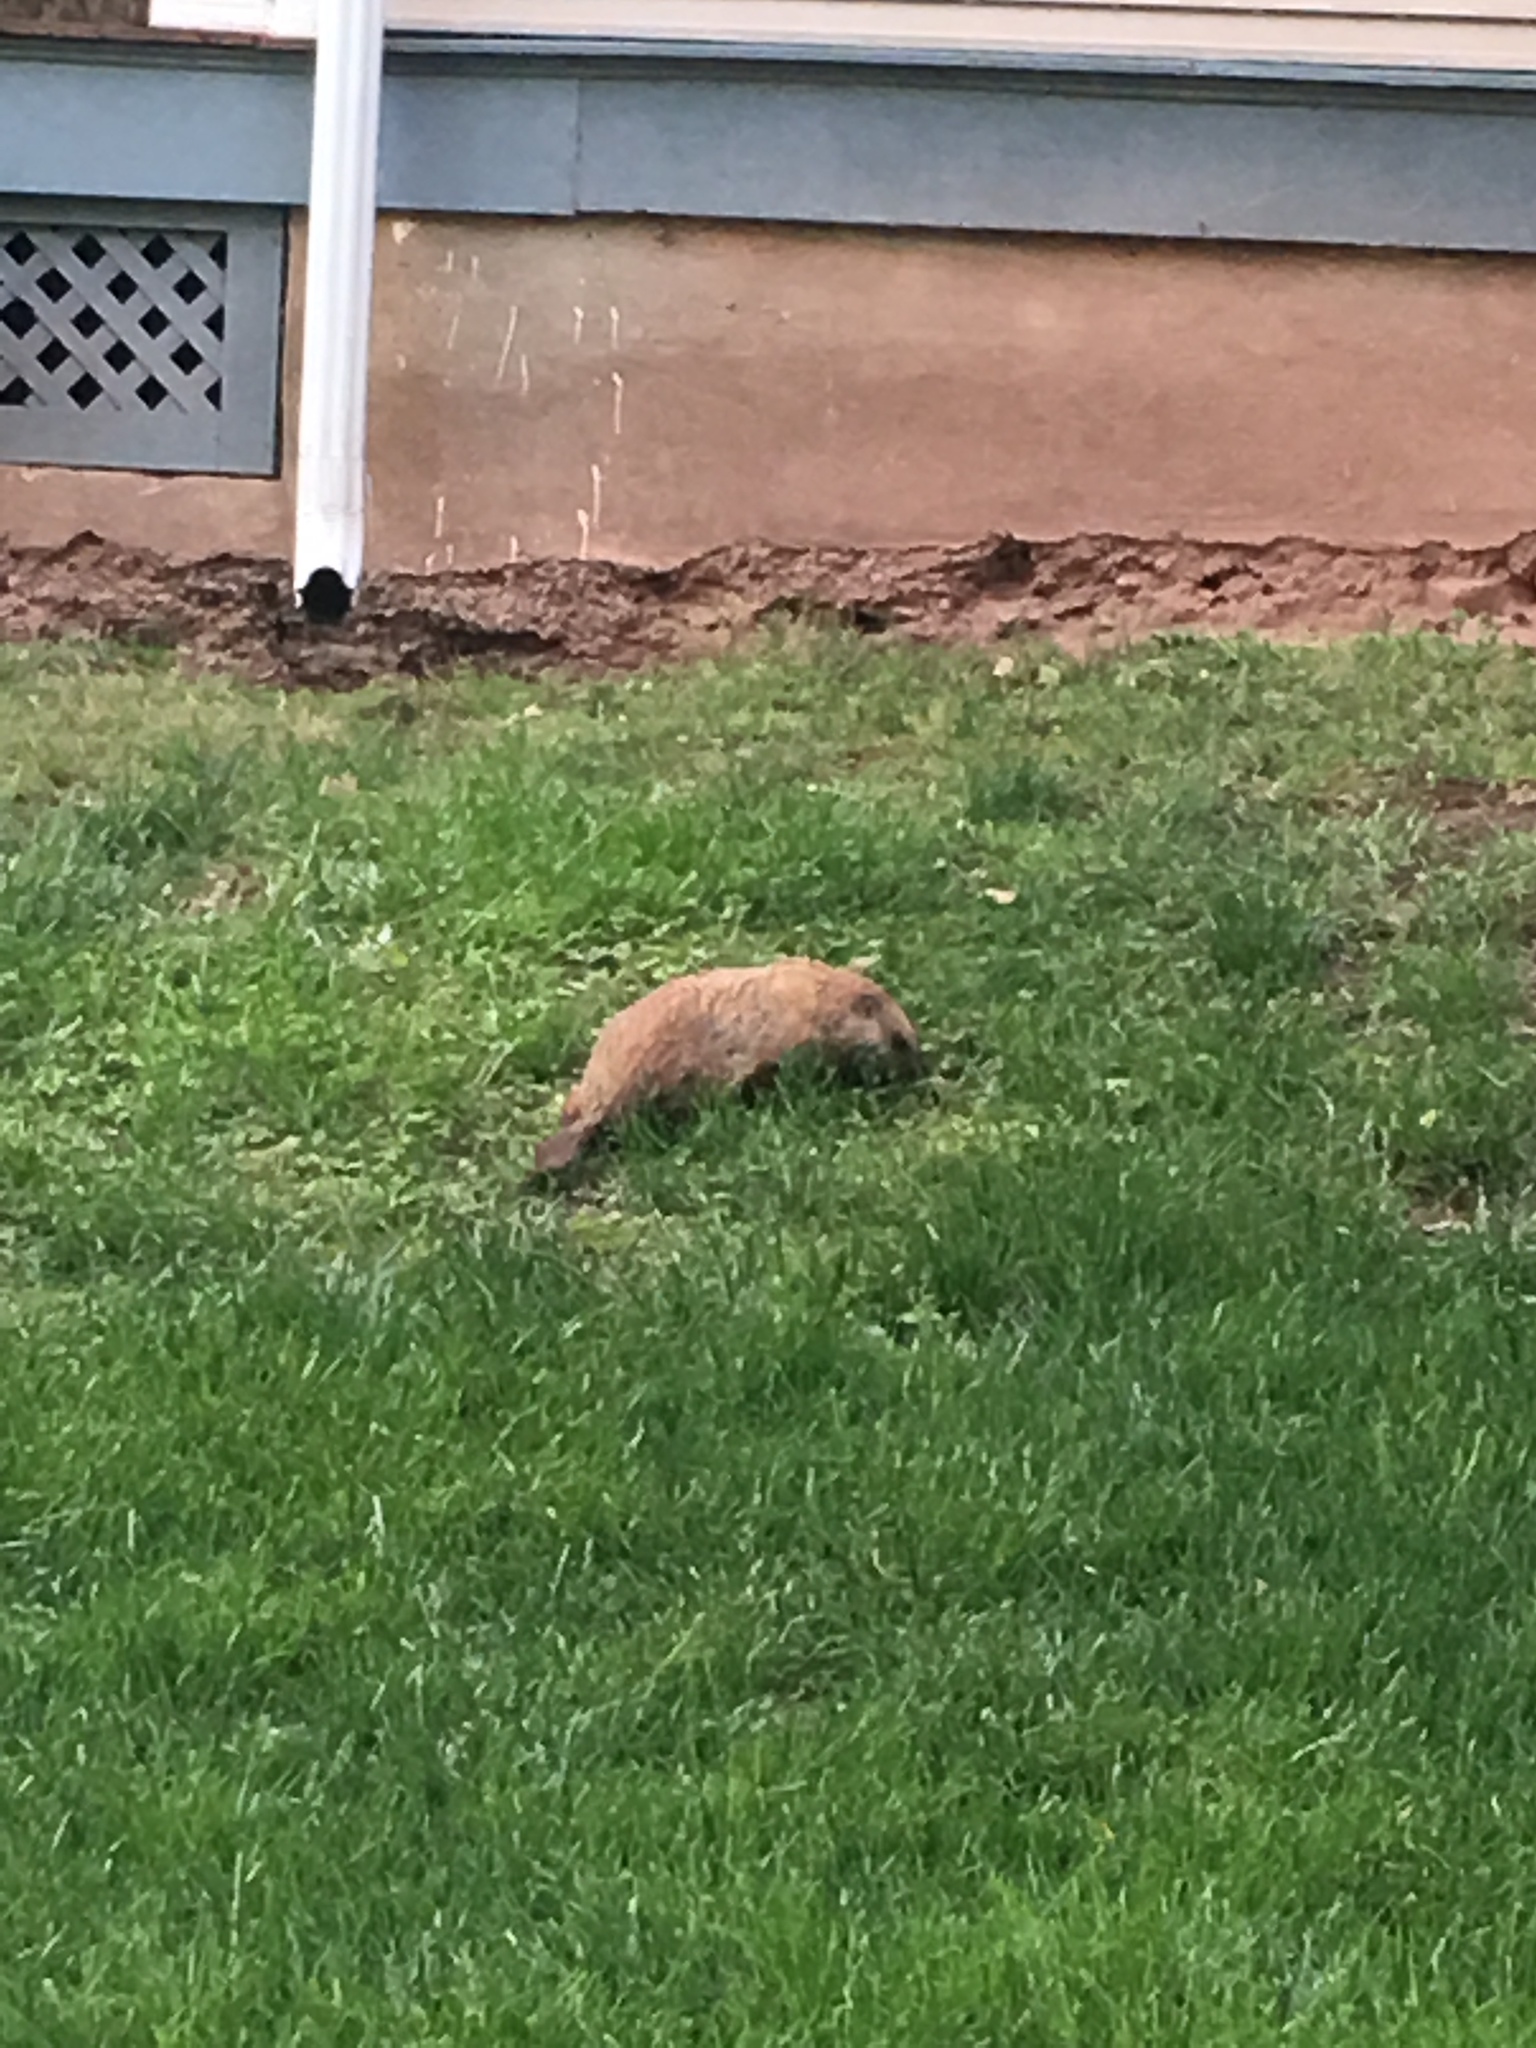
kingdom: Animalia
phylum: Chordata
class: Mammalia
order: Rodentia
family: Sciuridae
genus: Marmota
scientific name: Marmota monax
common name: Groundhog
